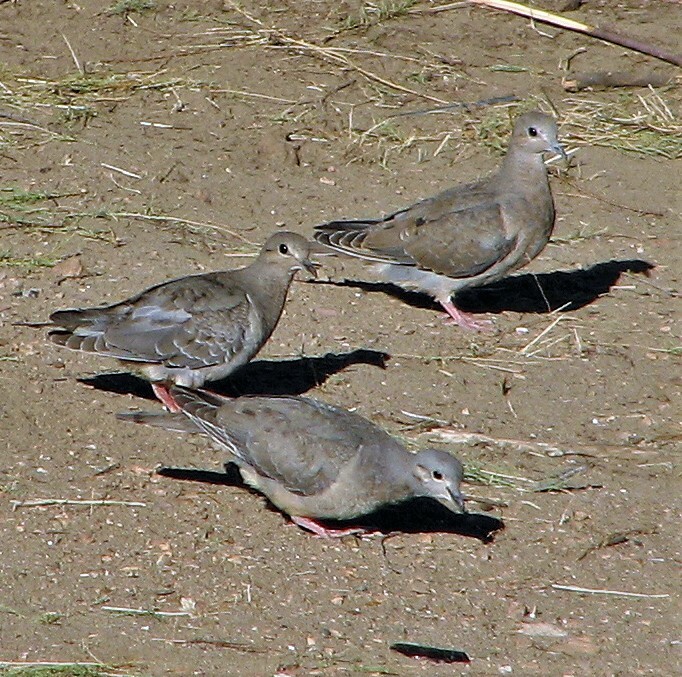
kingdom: Animalia
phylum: Chordata
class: Aves
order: Columbiformes
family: Columbidae
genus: Zenaida
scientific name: Zenaida auriculata
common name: Eared dove
